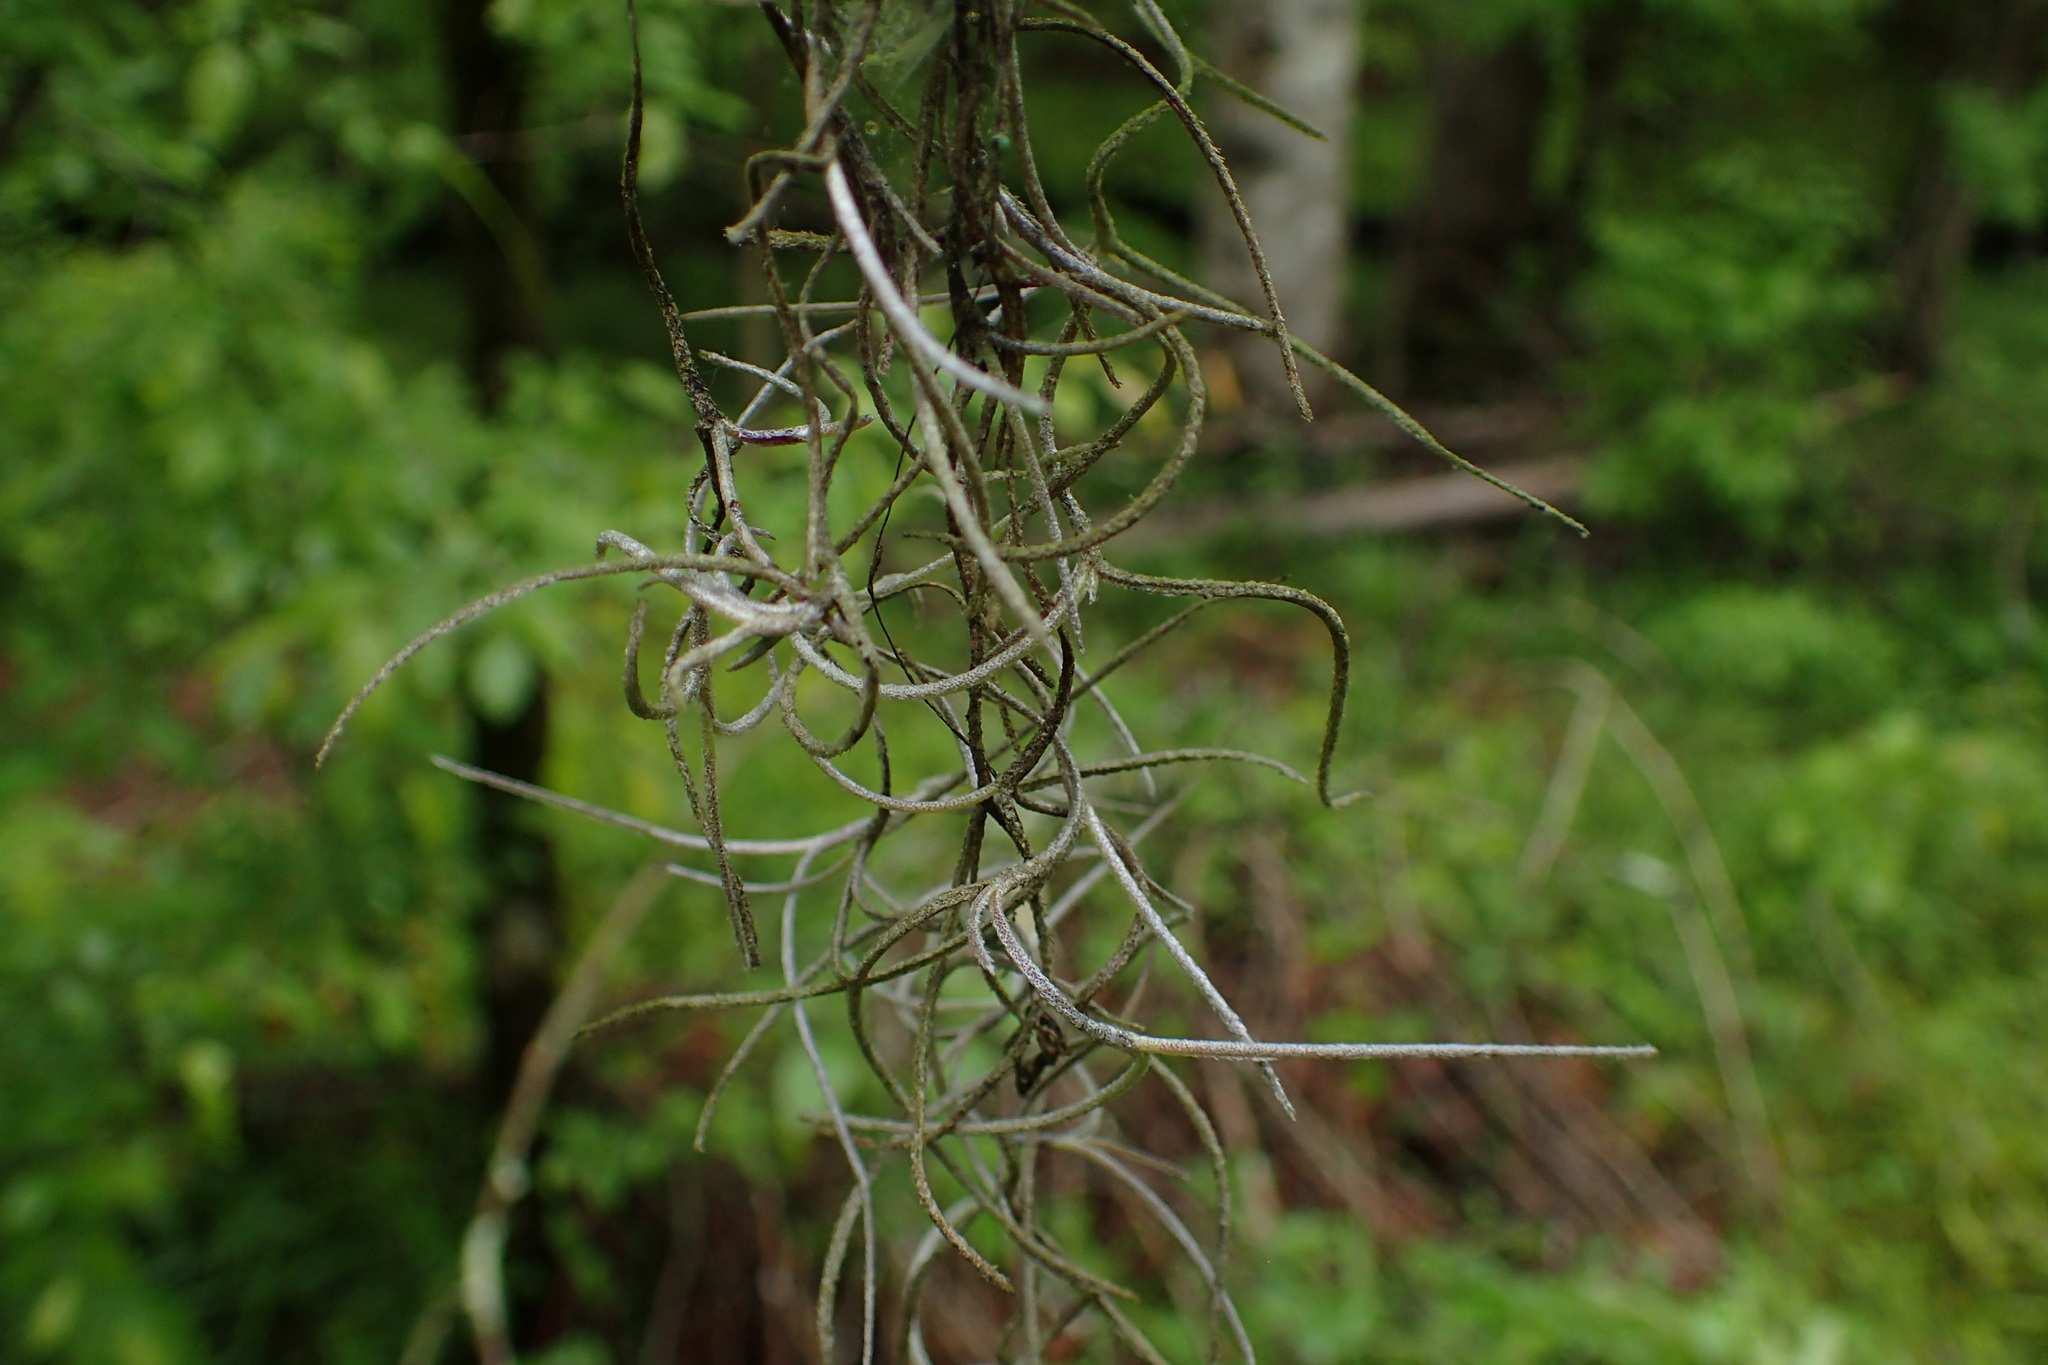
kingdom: Plantae
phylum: Tracheophyta
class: Liliopsida
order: Poales
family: Bromeliaceae
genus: Tillandsia
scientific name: Tillandsia usneoides
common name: Spanish moss
